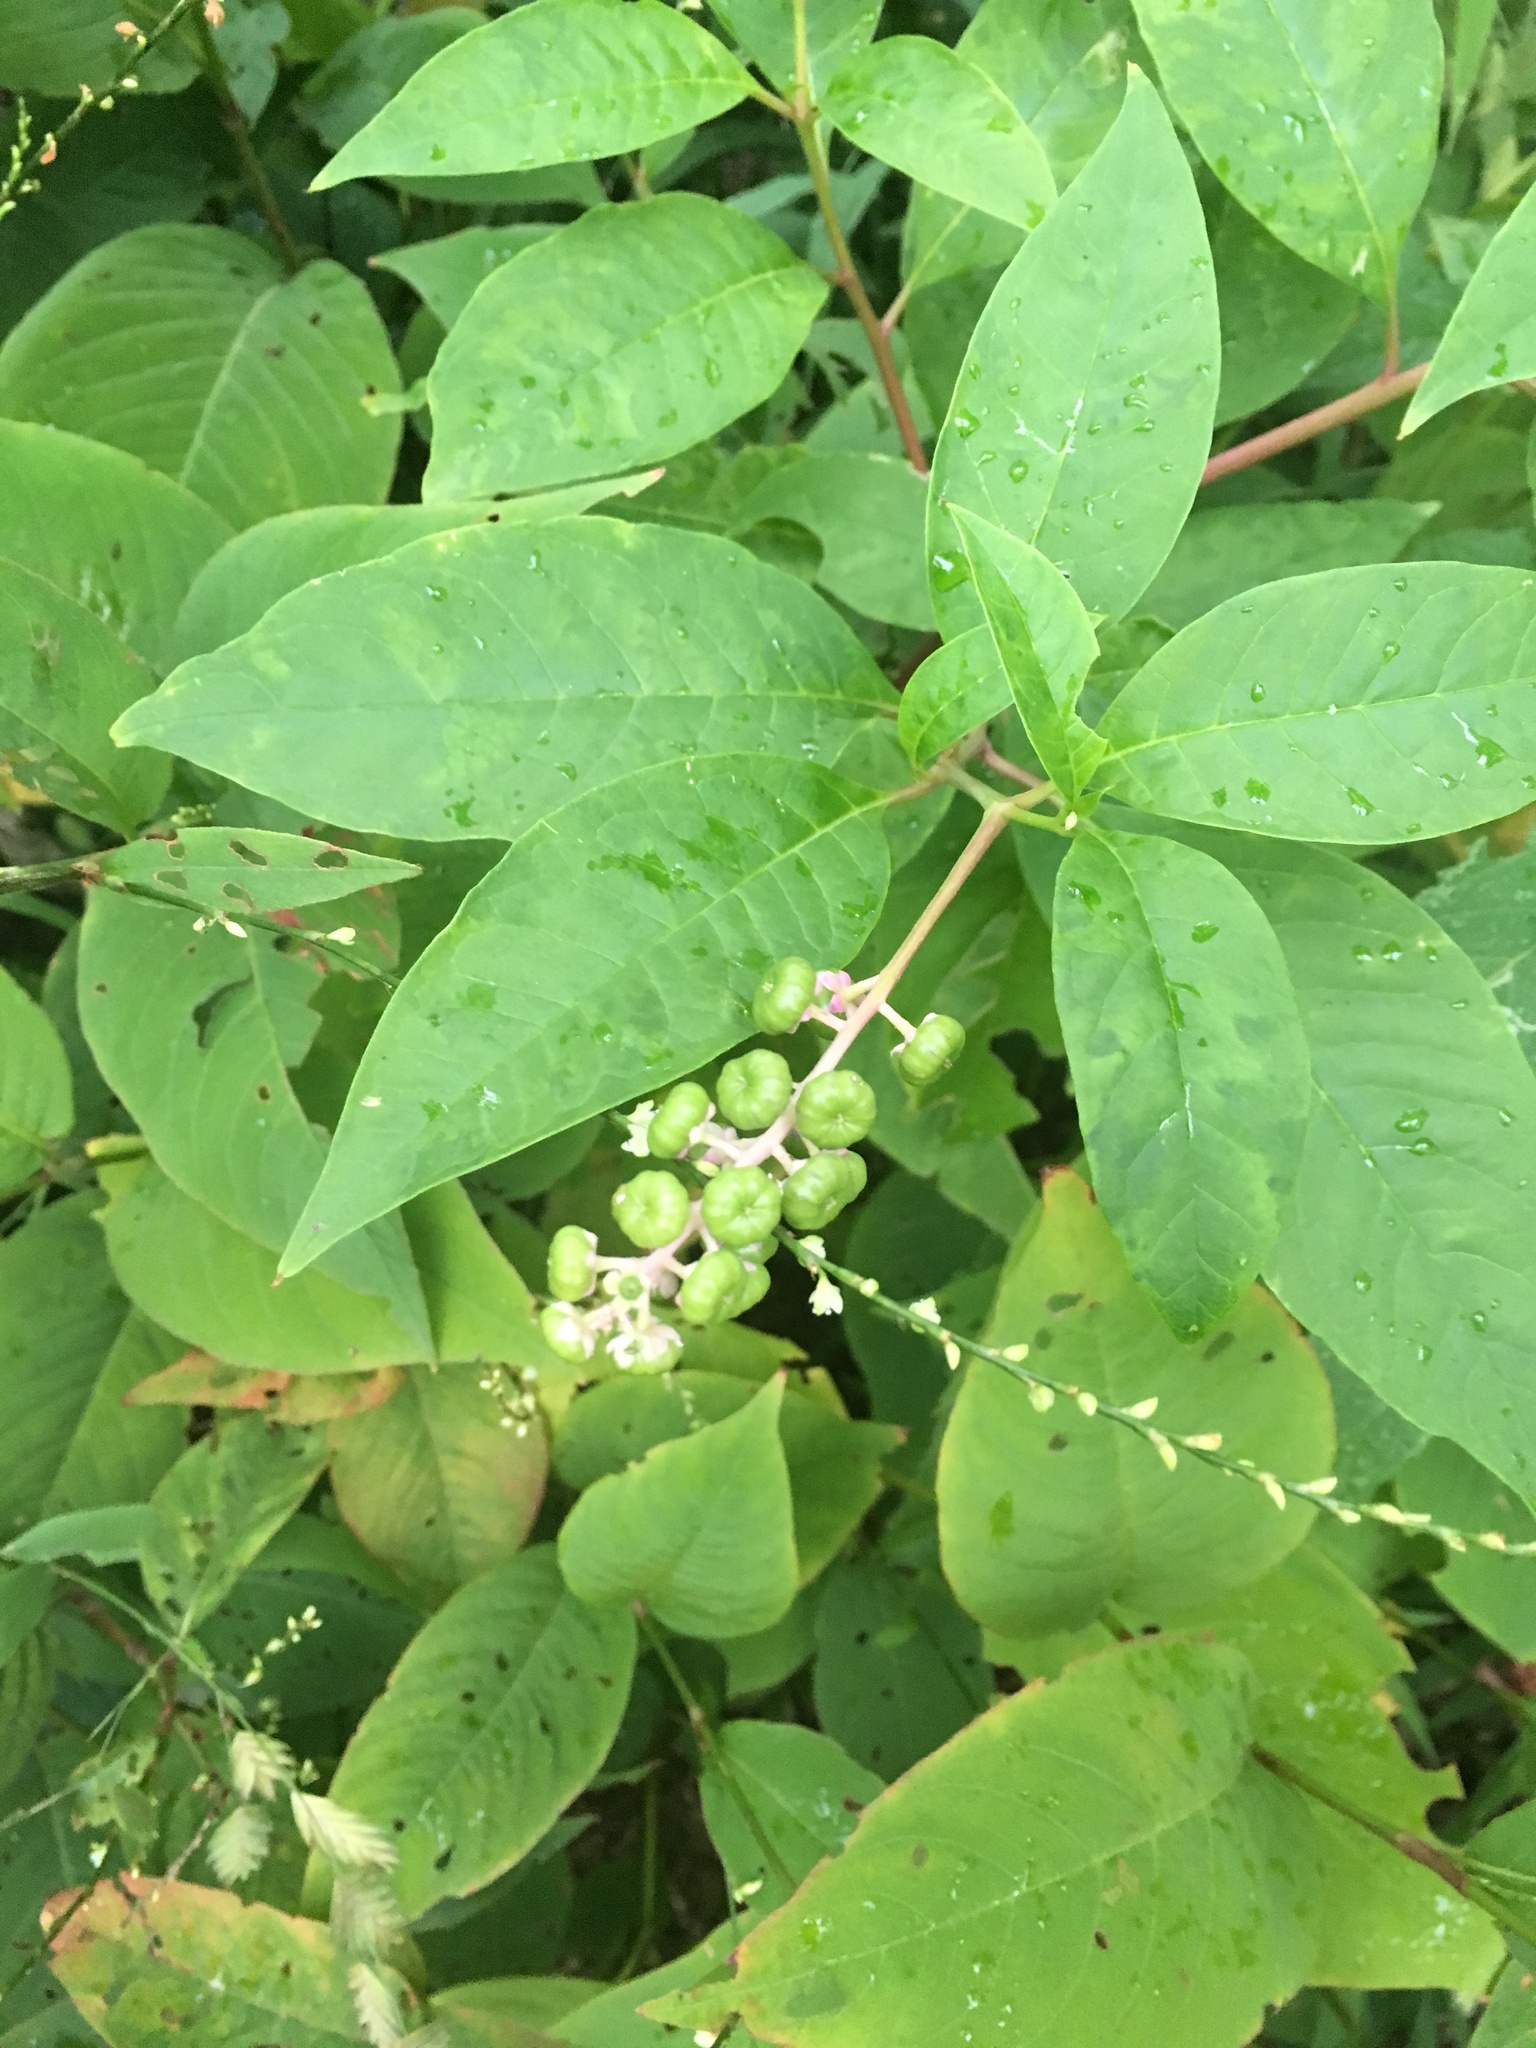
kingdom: Plantae
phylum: Tracheophyta
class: Magnoliopsida
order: Caryophyllales
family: Phytolaccaceae
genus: Phytolacca
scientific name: Phytolacca americana
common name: American pokeweed
